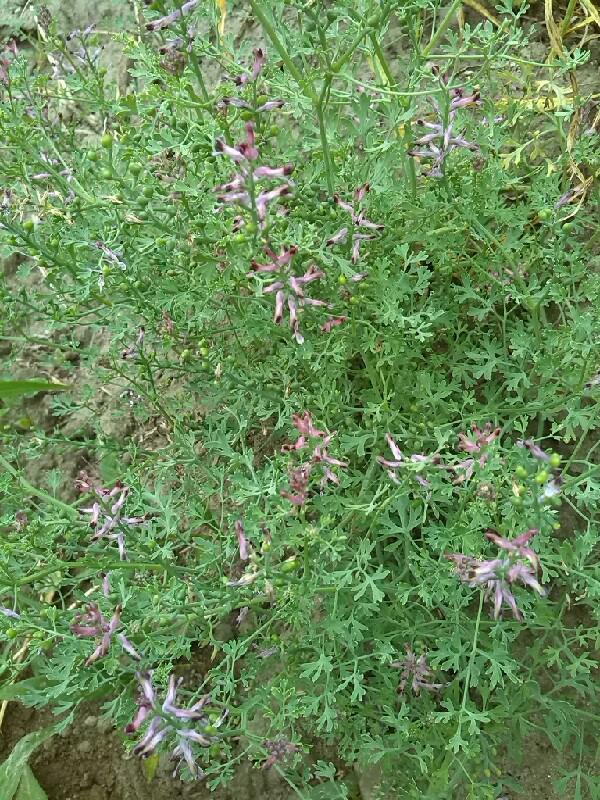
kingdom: Plantae
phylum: Tracheophyta
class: Magnoliopsida
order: Ranunculales
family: Papaveraceae
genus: Fumaria
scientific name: Fumaria officinalis
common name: Common fumitory
